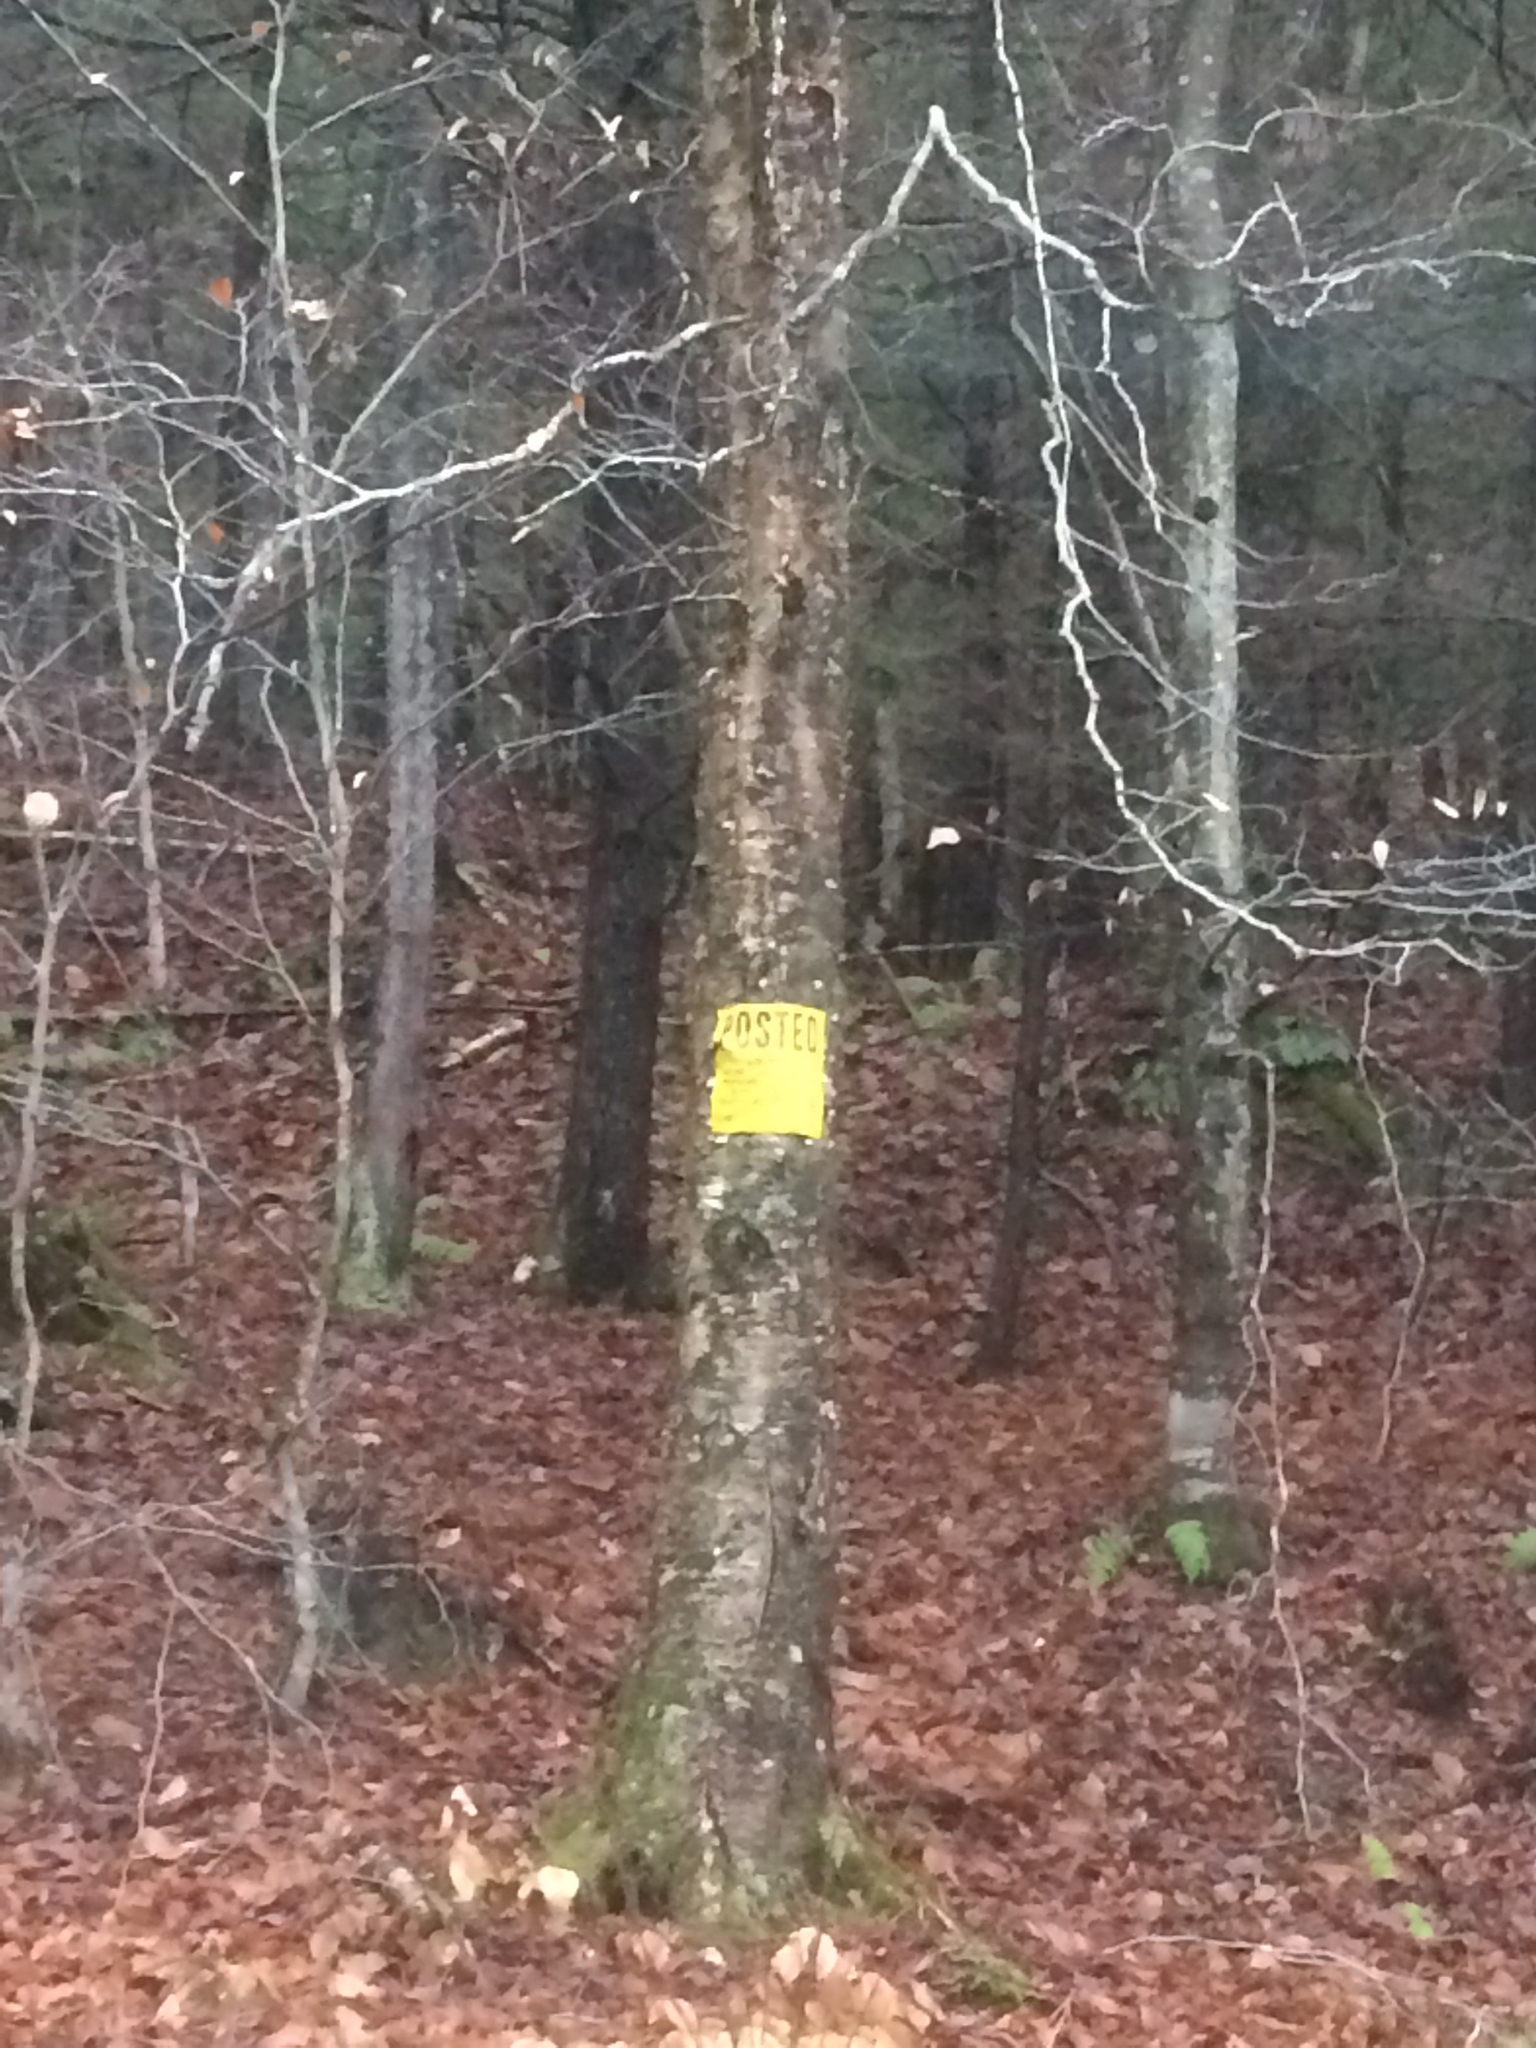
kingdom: Plantae
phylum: Tracheophyta
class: Magnoliopsida
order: Fagales
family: Betulaceae
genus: Betula
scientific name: Betula alleghaniensis
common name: Yellow birch
